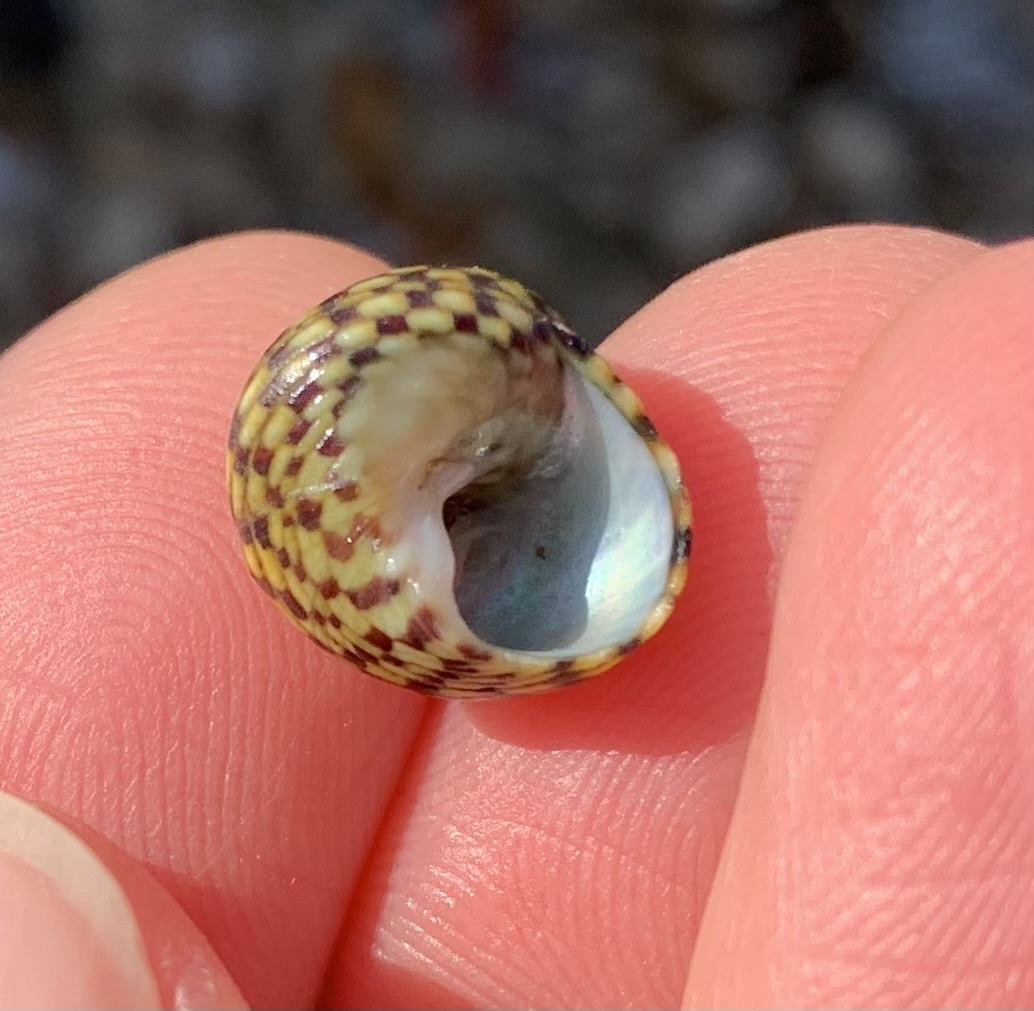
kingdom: Animalia
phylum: Mollusca
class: Gastropoda
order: Trochida
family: Trochidae
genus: Phorcus
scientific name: Phorcus turbinatus
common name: Turbinate monodont
